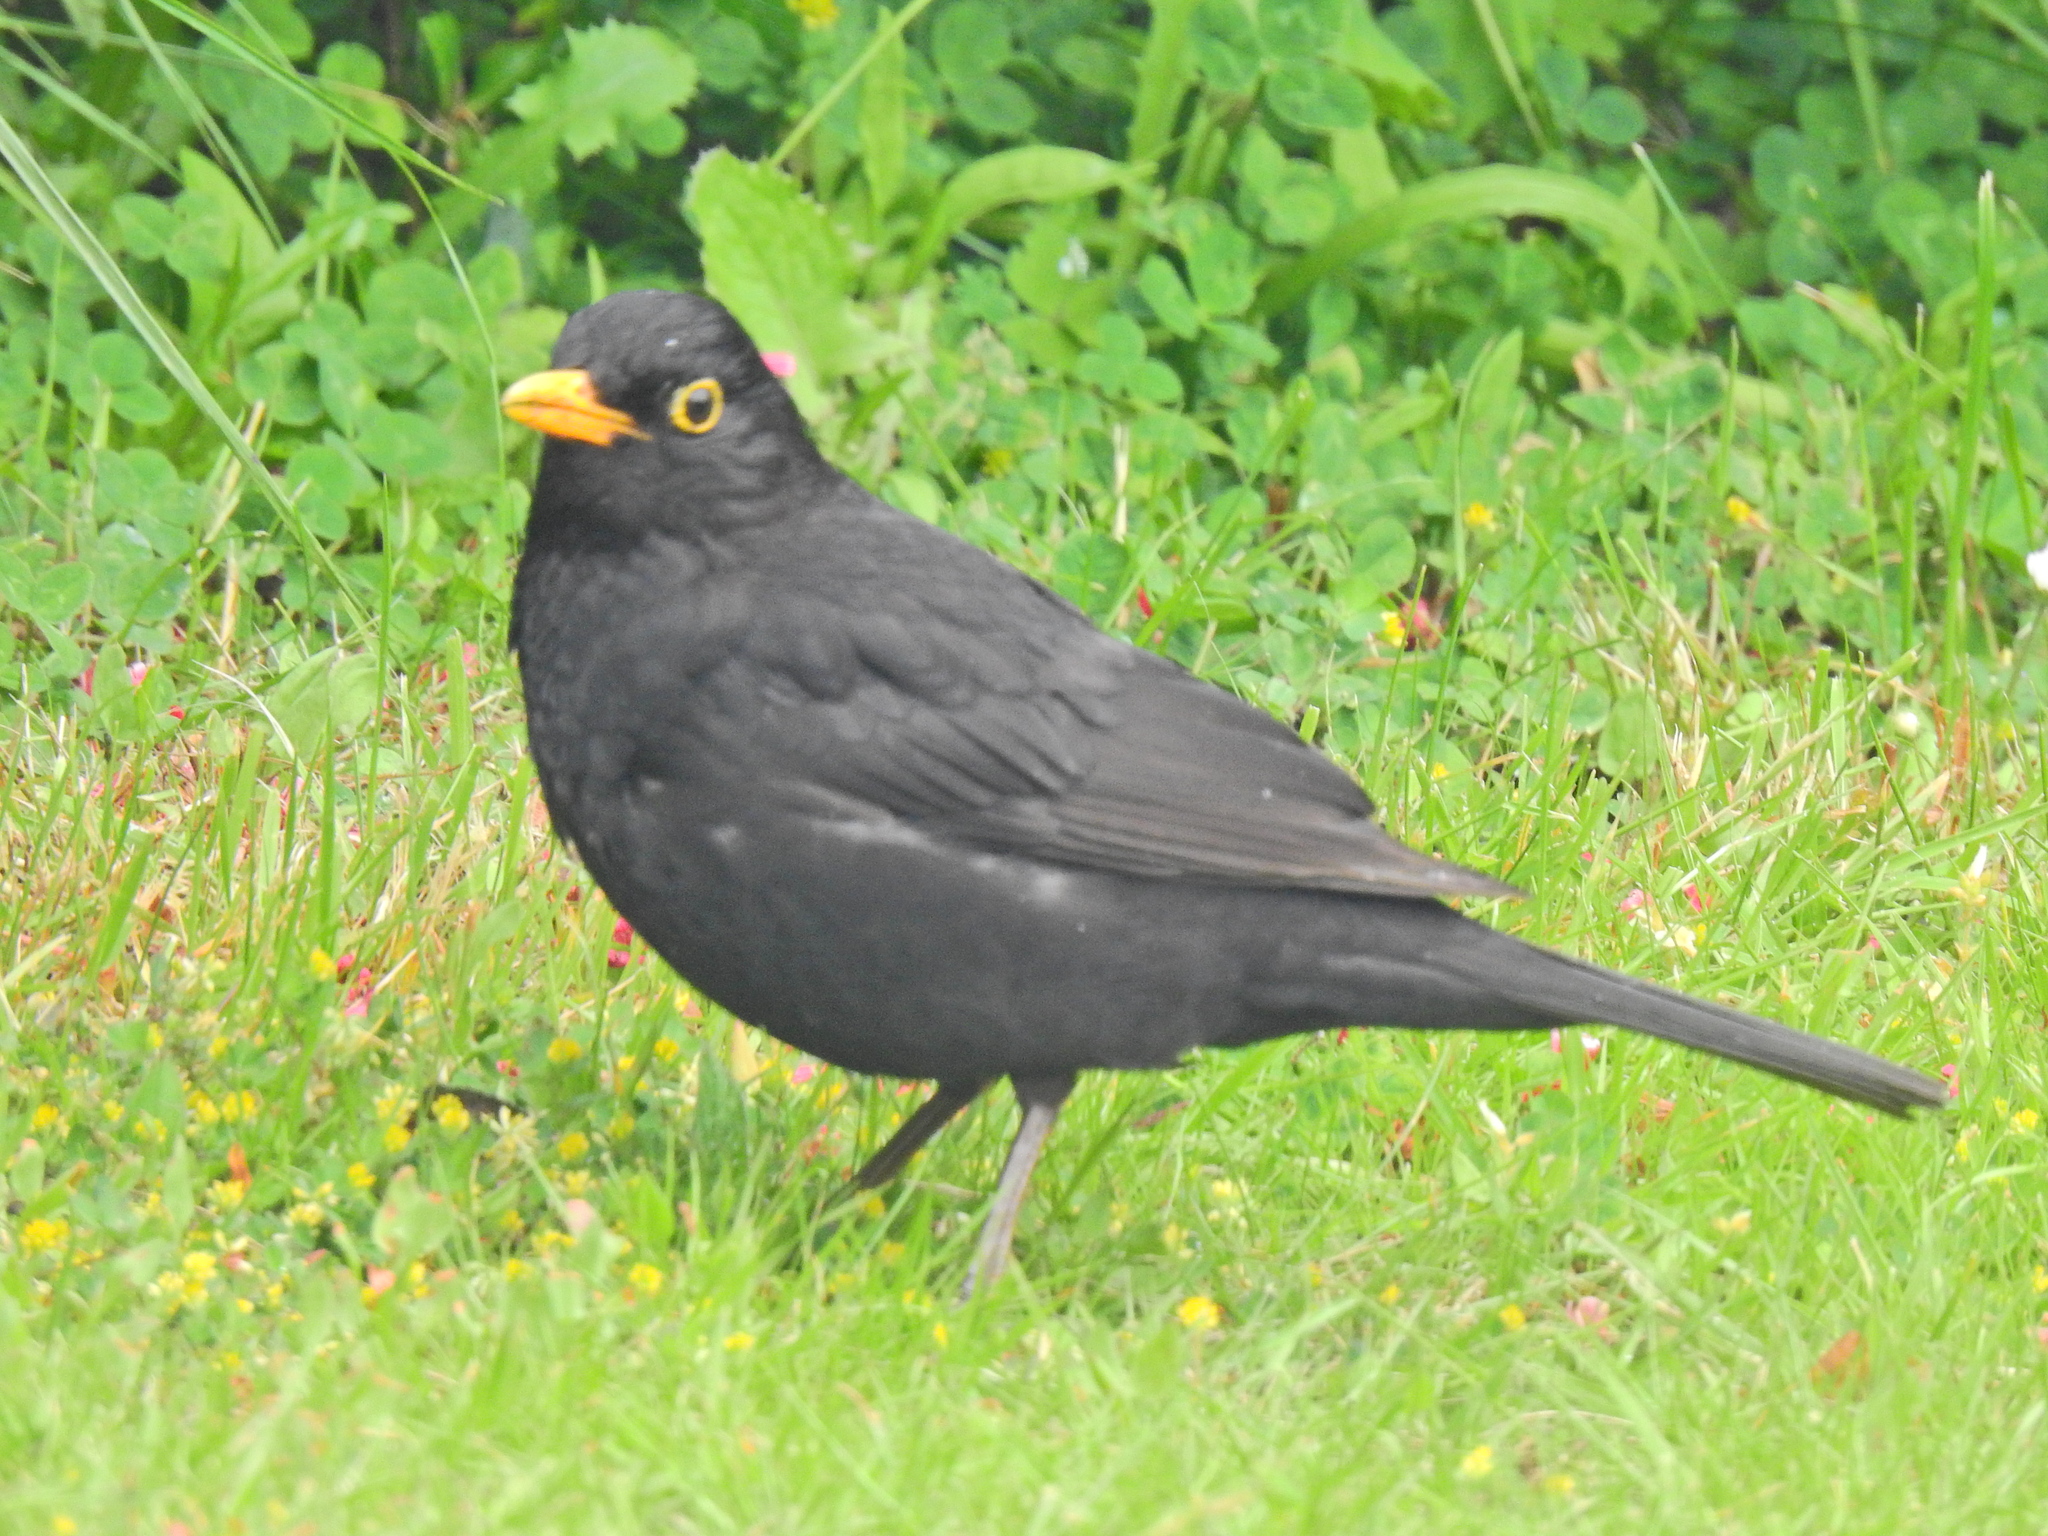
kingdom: Animalia
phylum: Chordata
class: Aves
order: Passeriformes
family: Turdidae
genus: Turdus
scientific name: Turdus merula
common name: Common blackbird
